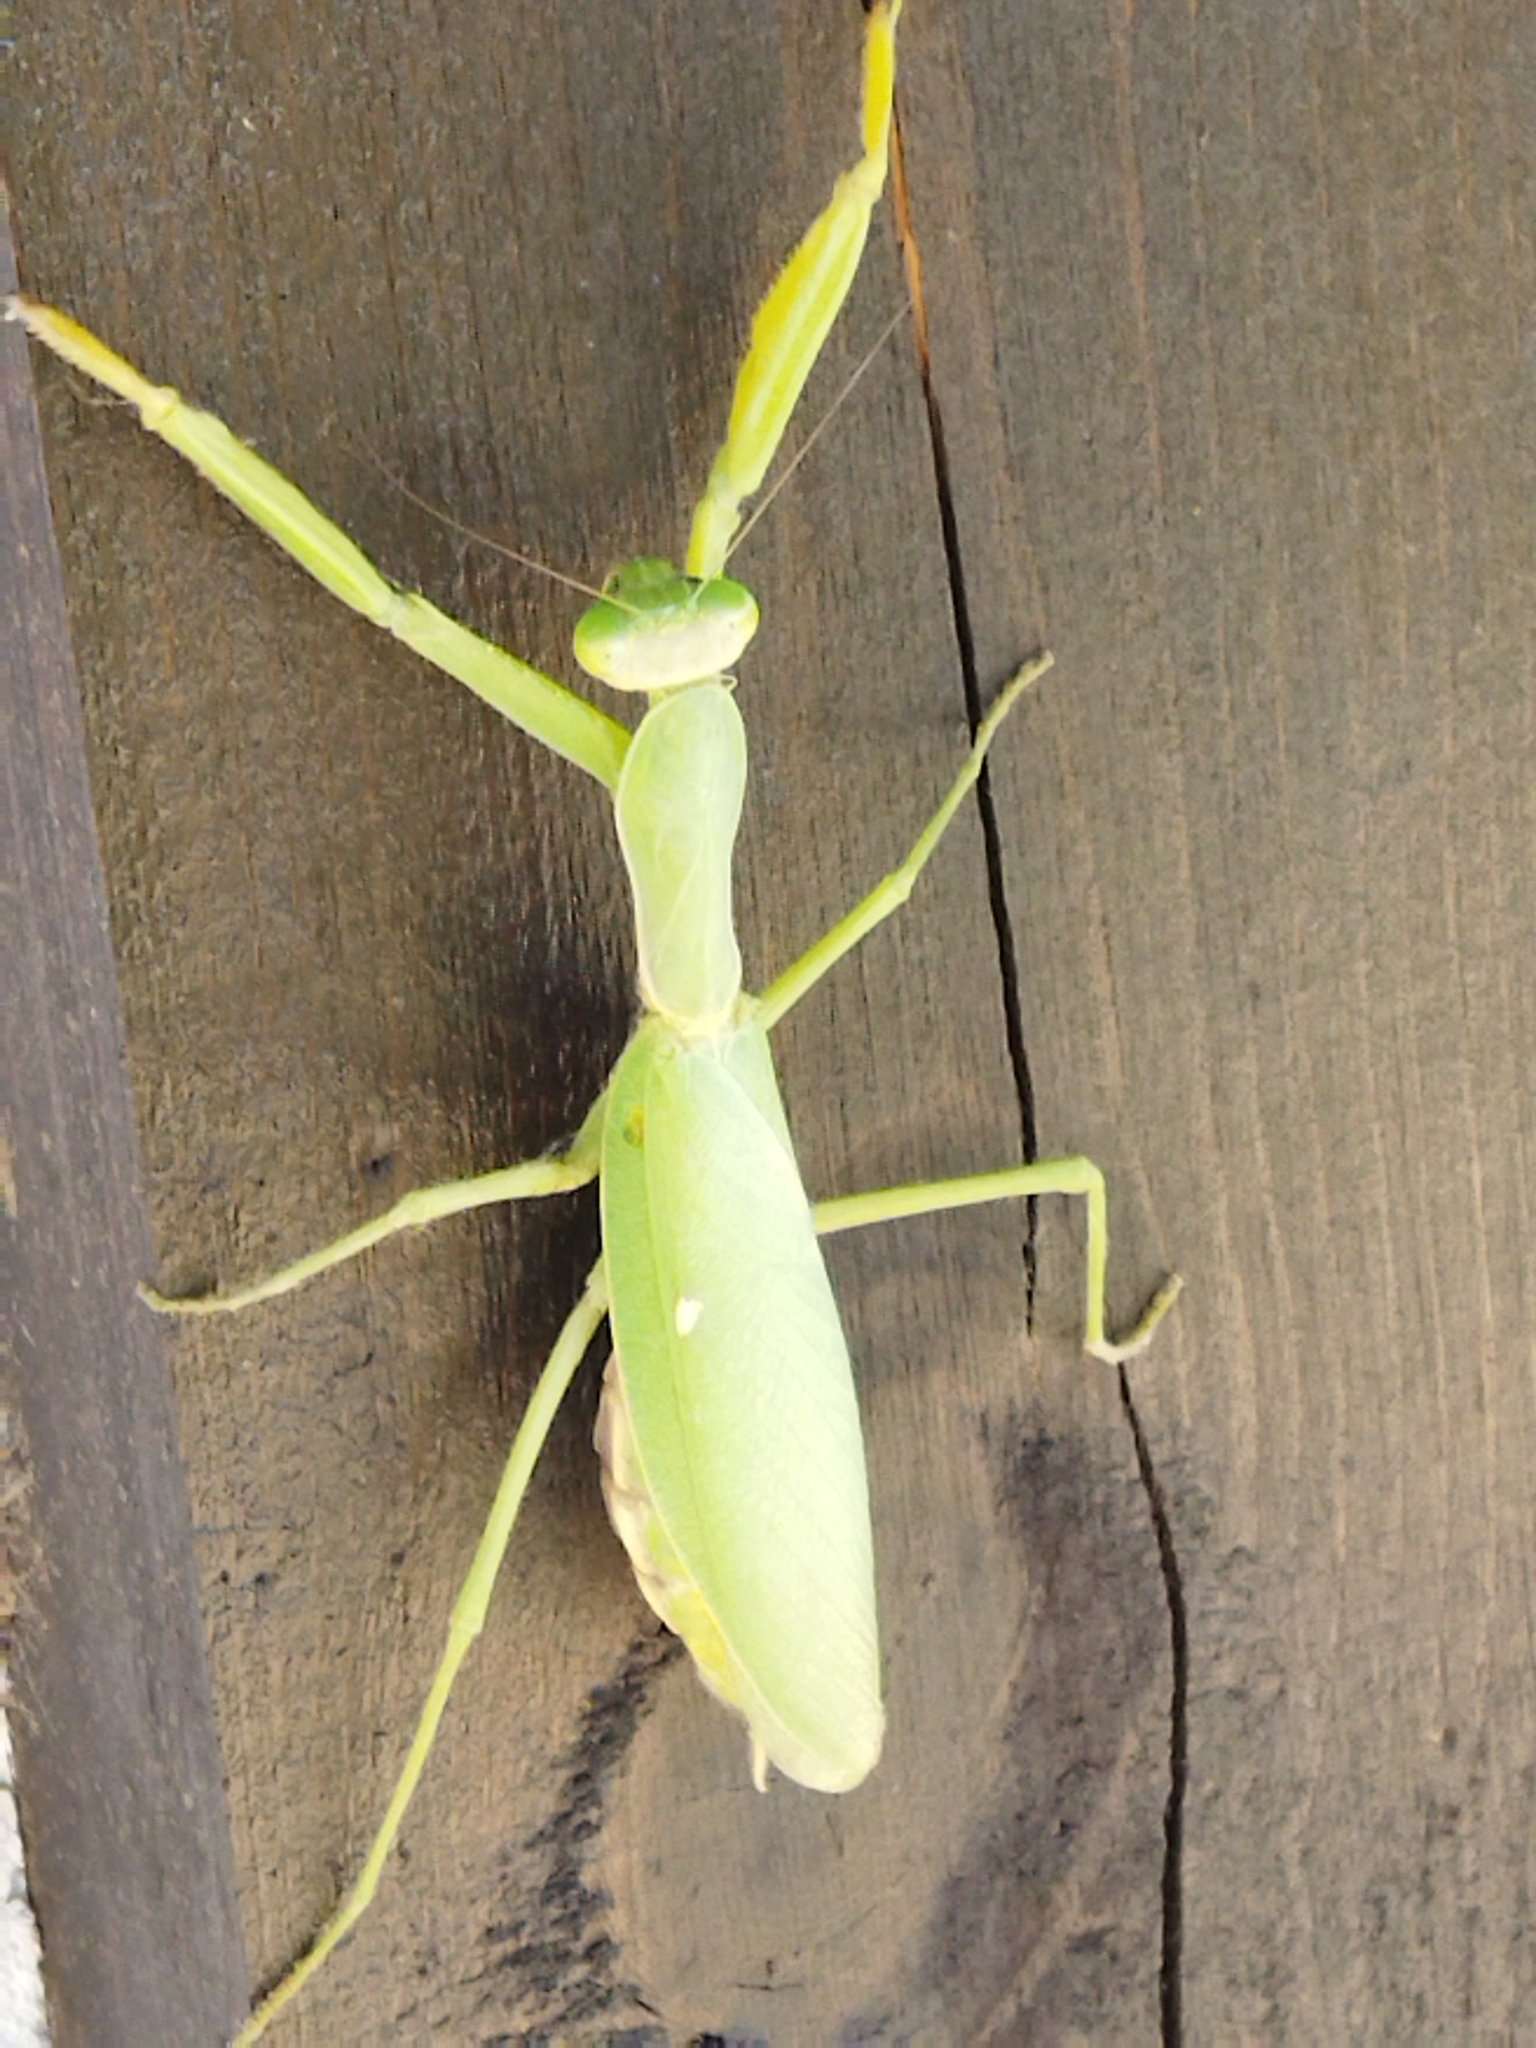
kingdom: Animalia
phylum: Arthropoda
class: Insecta
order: Mantodea
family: Mantidae
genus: Hierodula
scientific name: Hierodula transcaucasica
